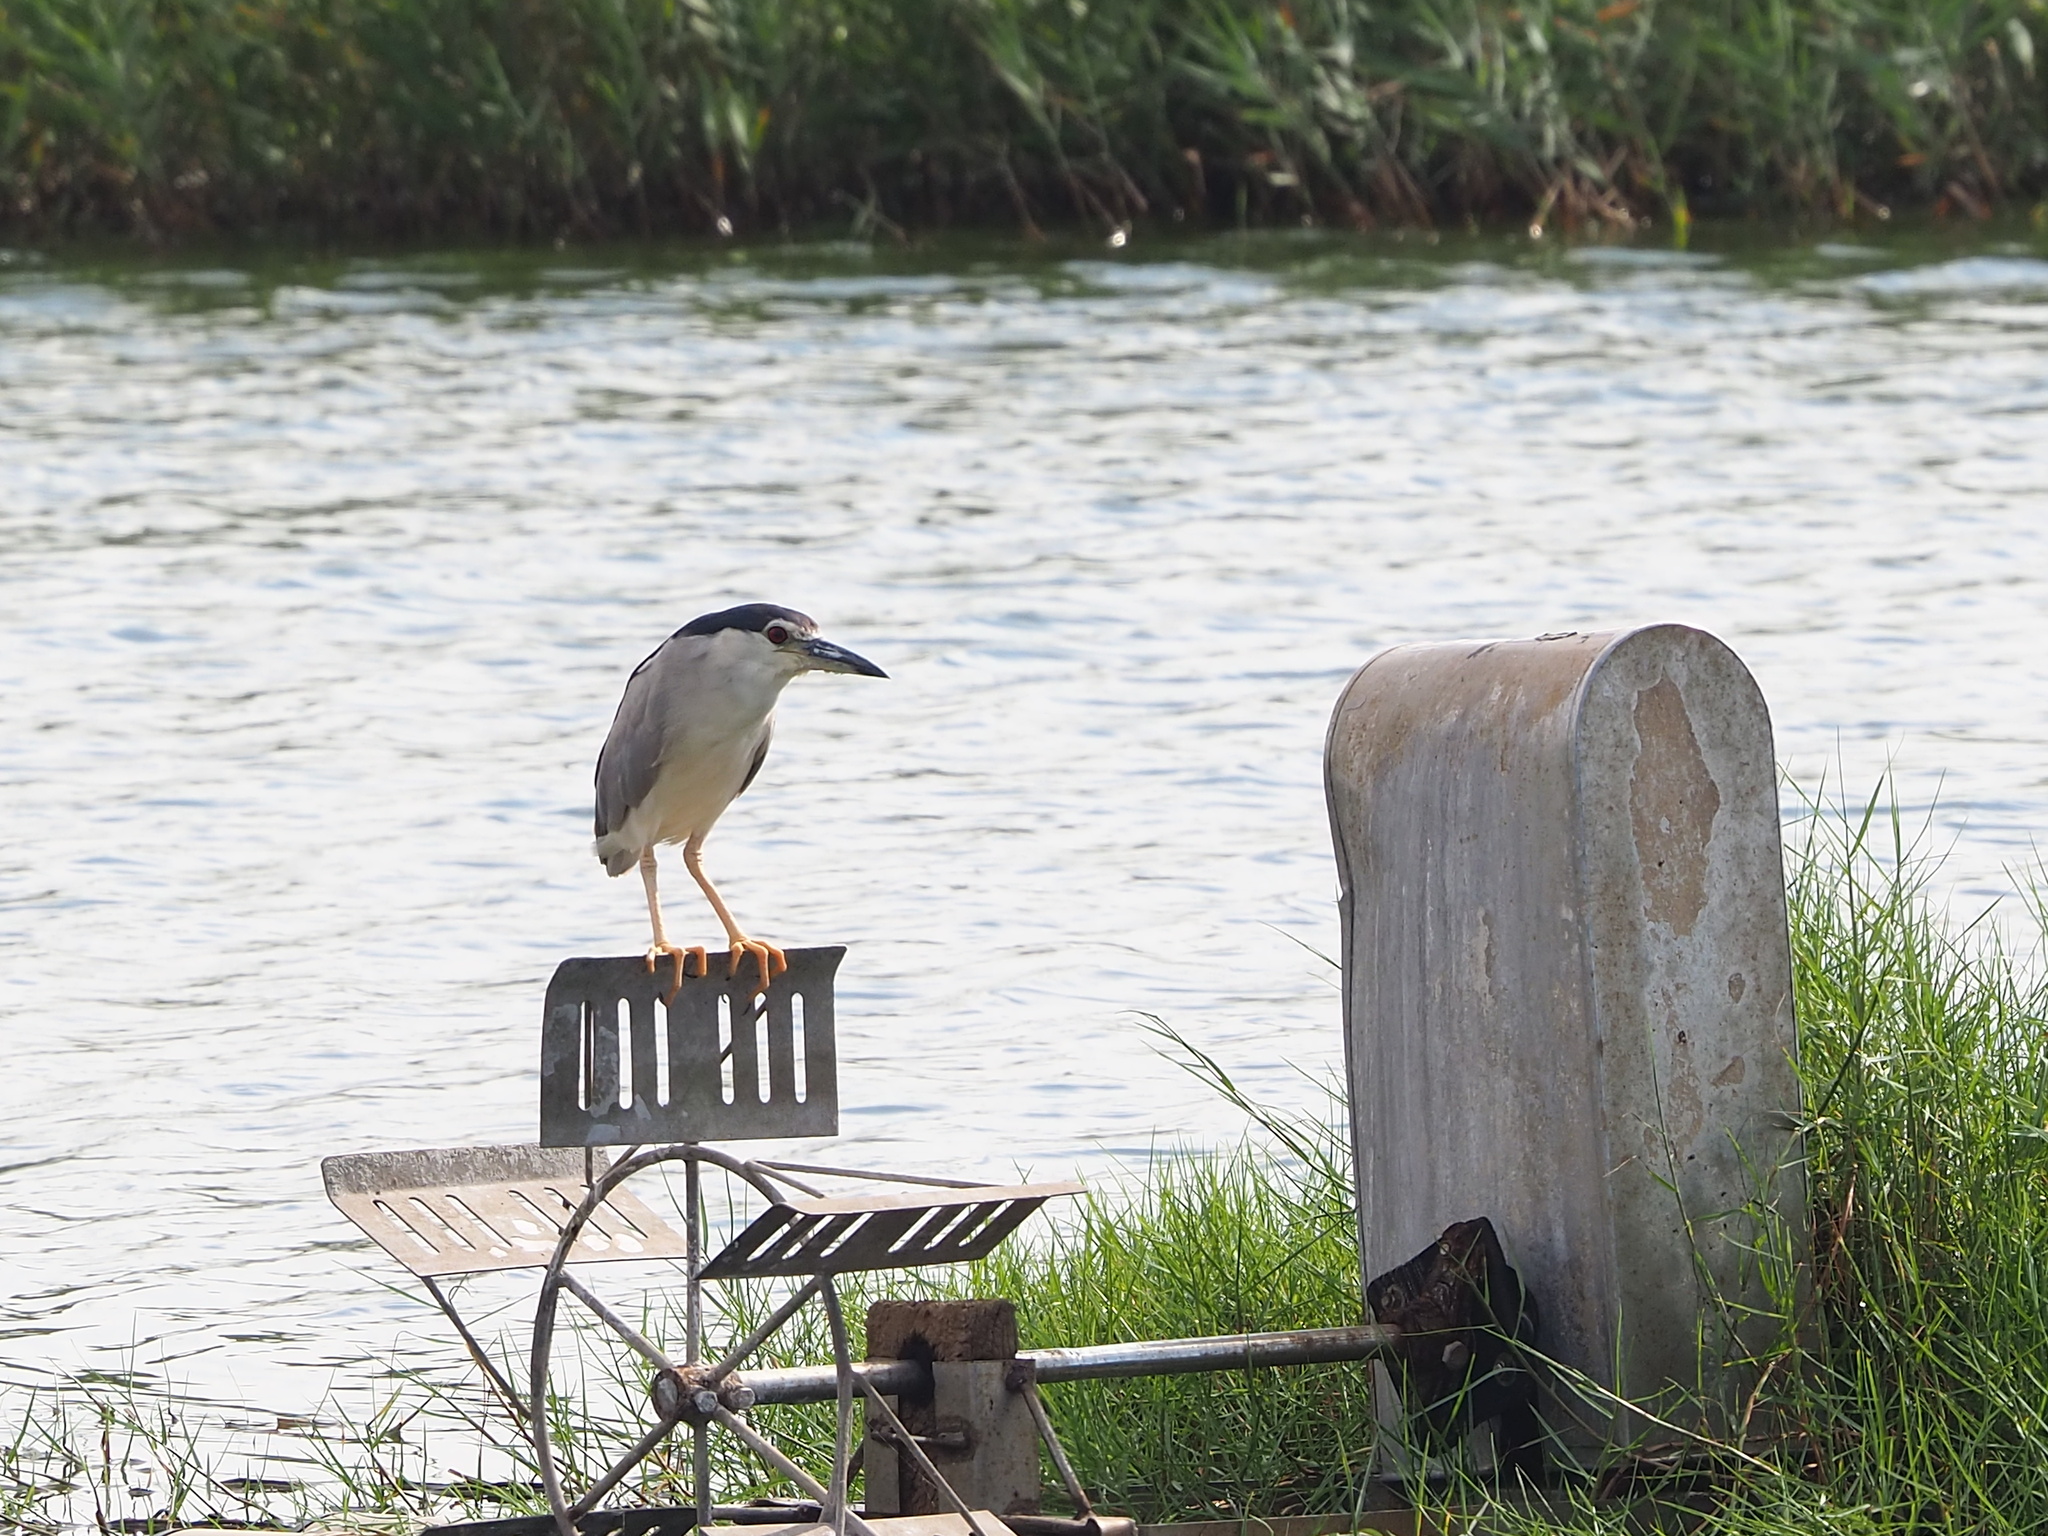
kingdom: Animalia
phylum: Chordata
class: Aves
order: Pelecaniformes
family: Ardeidae
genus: Nycticorax
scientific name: Nycticorax nycticorax
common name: Black-crowned night heron
